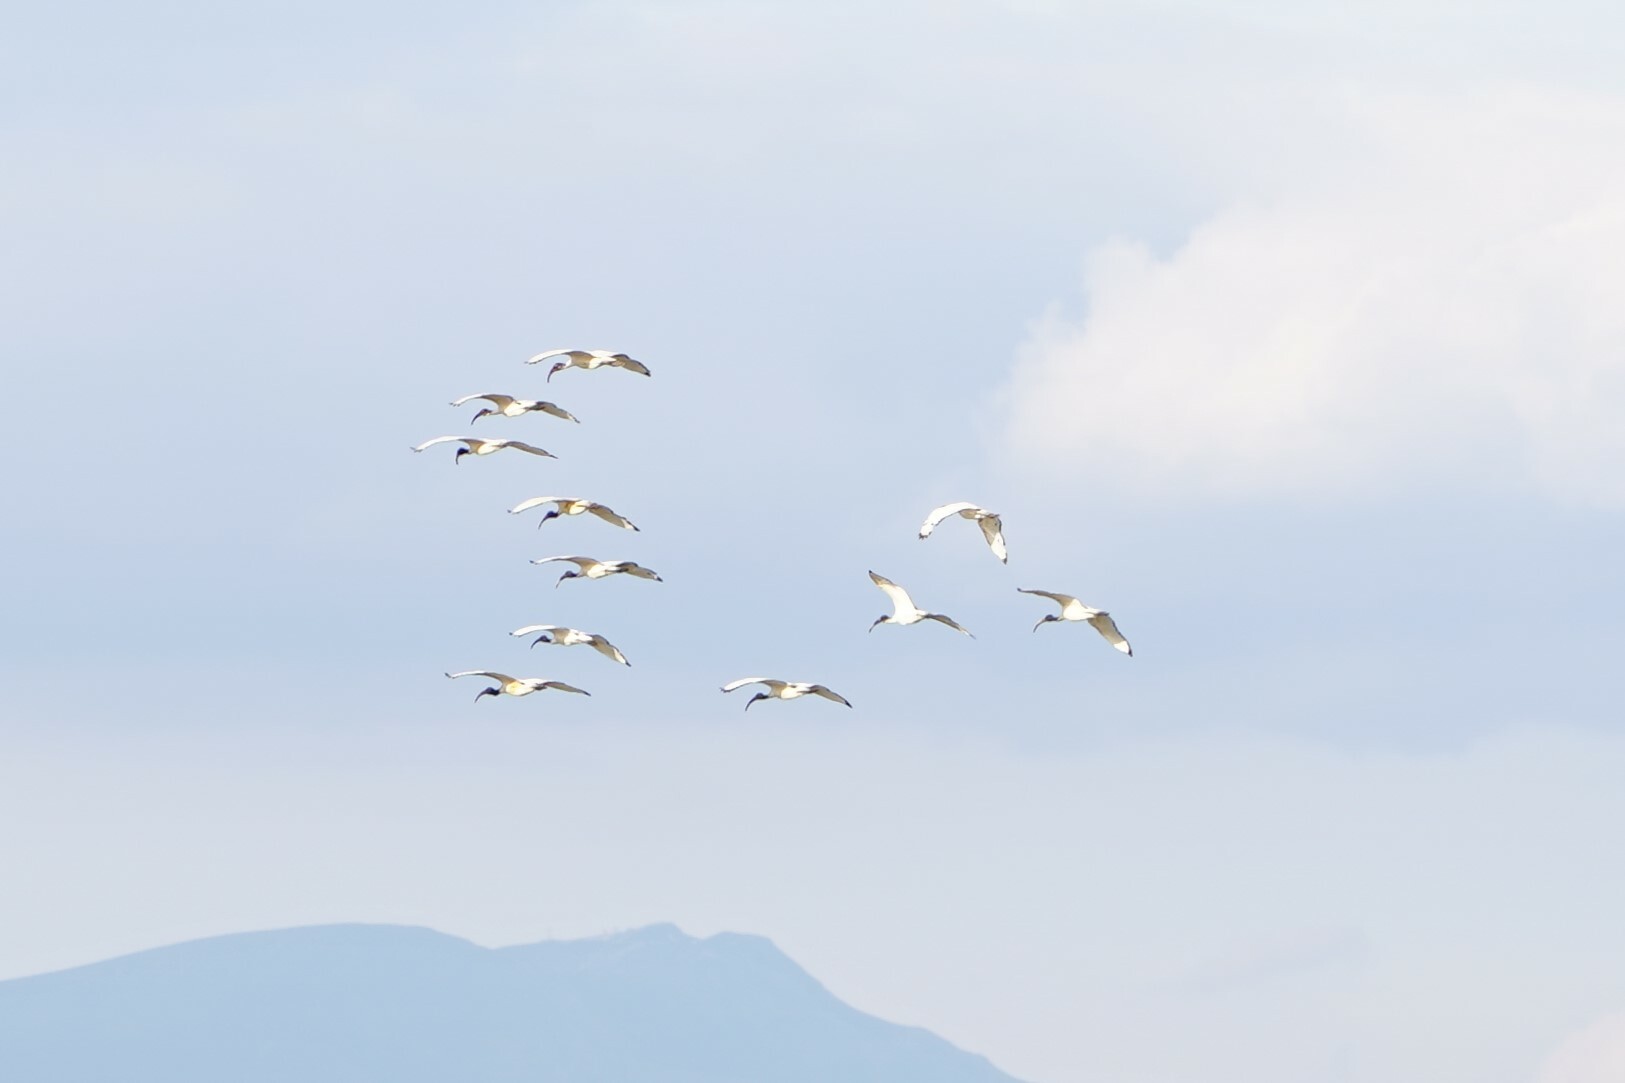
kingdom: Animalia
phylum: Chordata
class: Aves
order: Pelecaniformes
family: Threskiornithidae
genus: Threskiornis
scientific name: Threskiornis aethiopicus
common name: Sacred ibis
